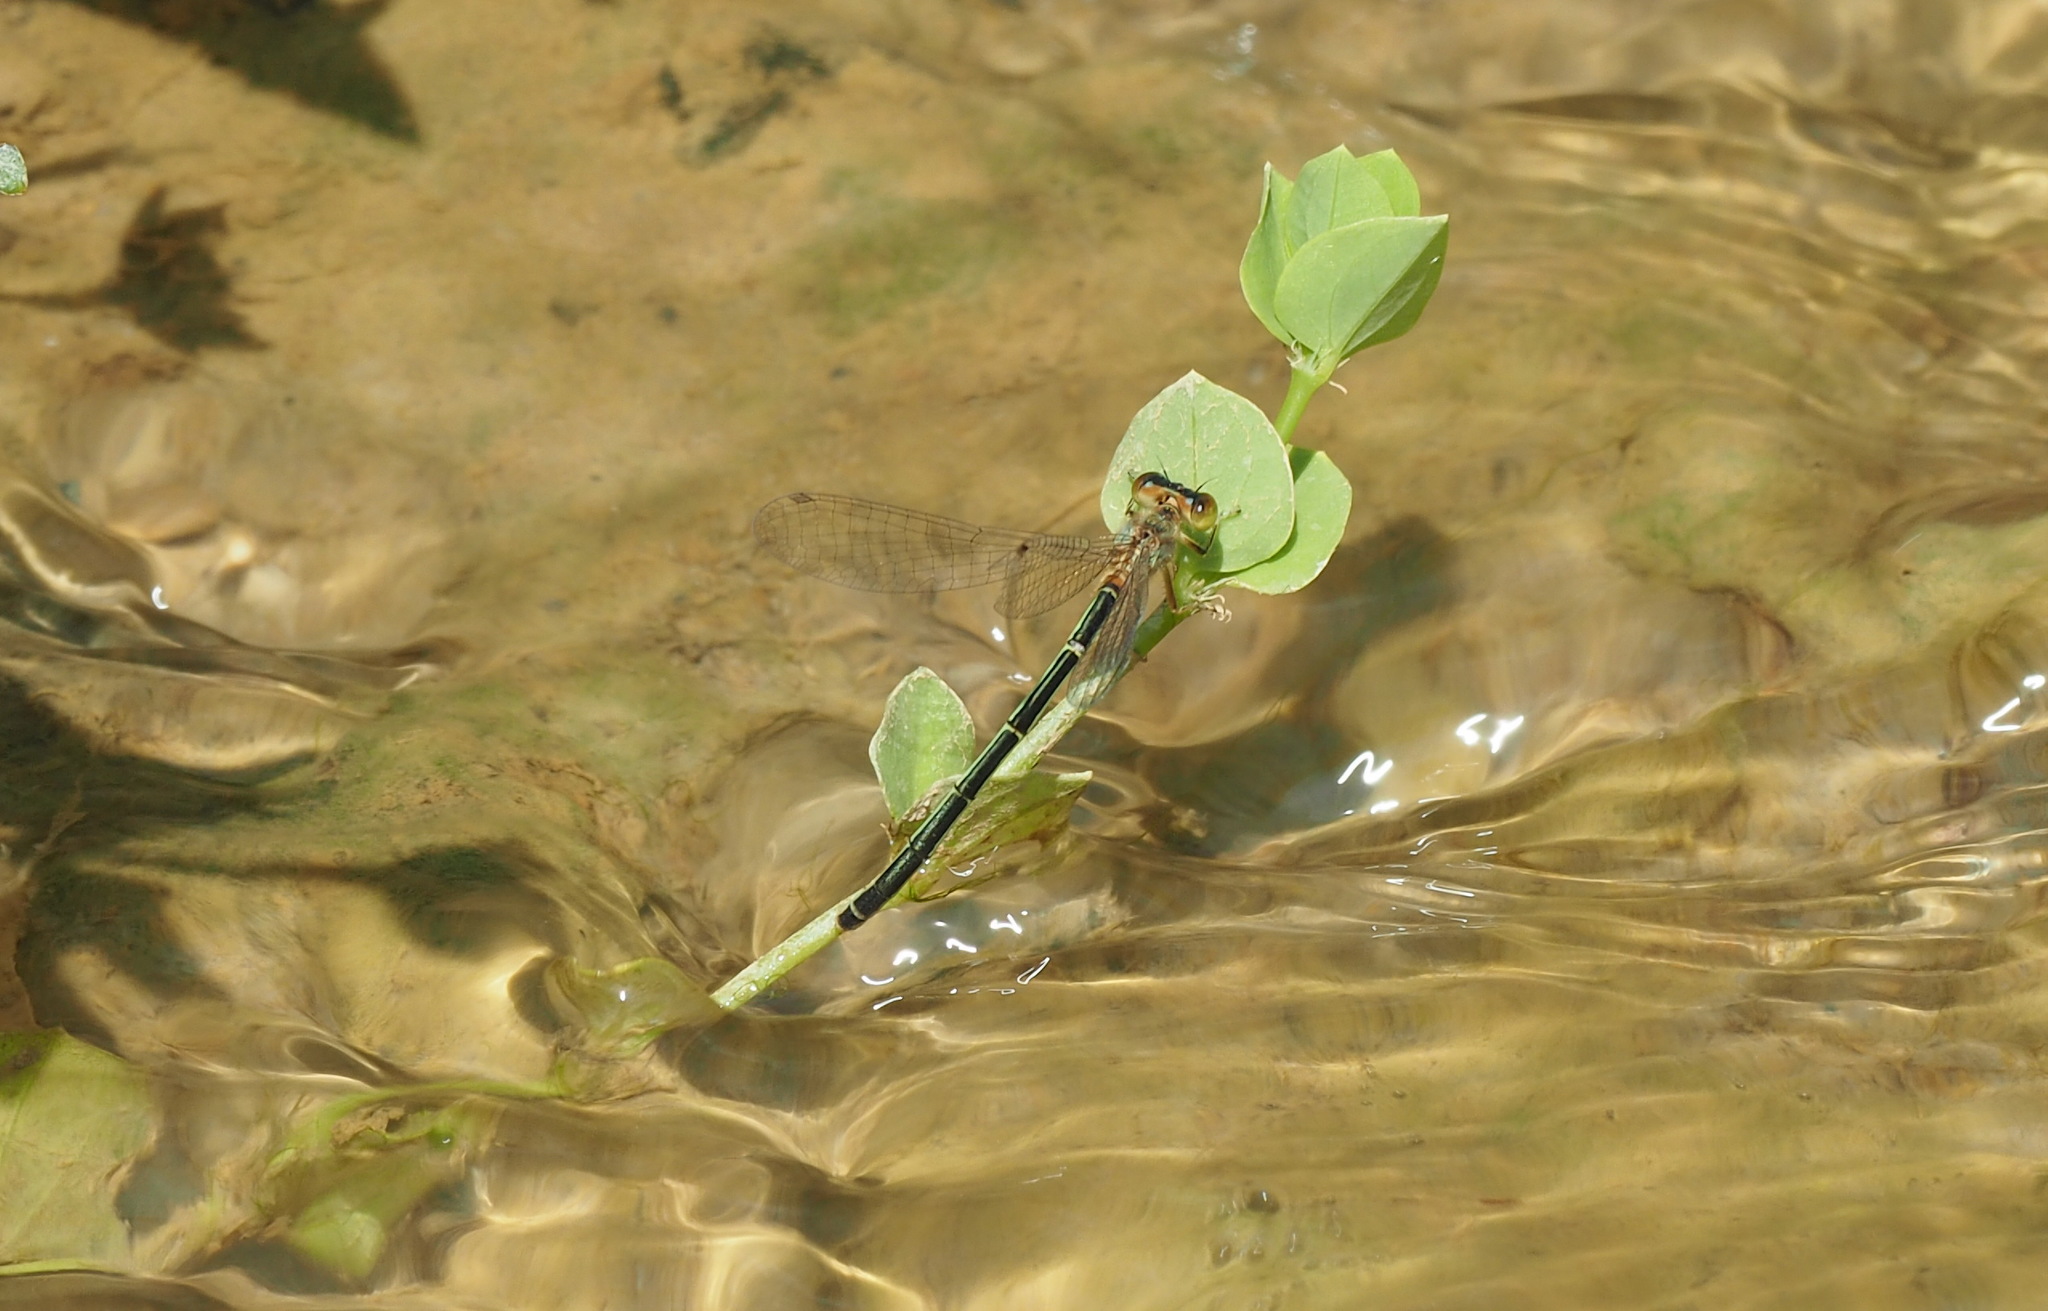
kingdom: Animalia
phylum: Arthropoda
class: Insecta
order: Odonata
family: Coenagrionidae
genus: Ischnura
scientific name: Ischnura senegalensis
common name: Tropical bluetail
